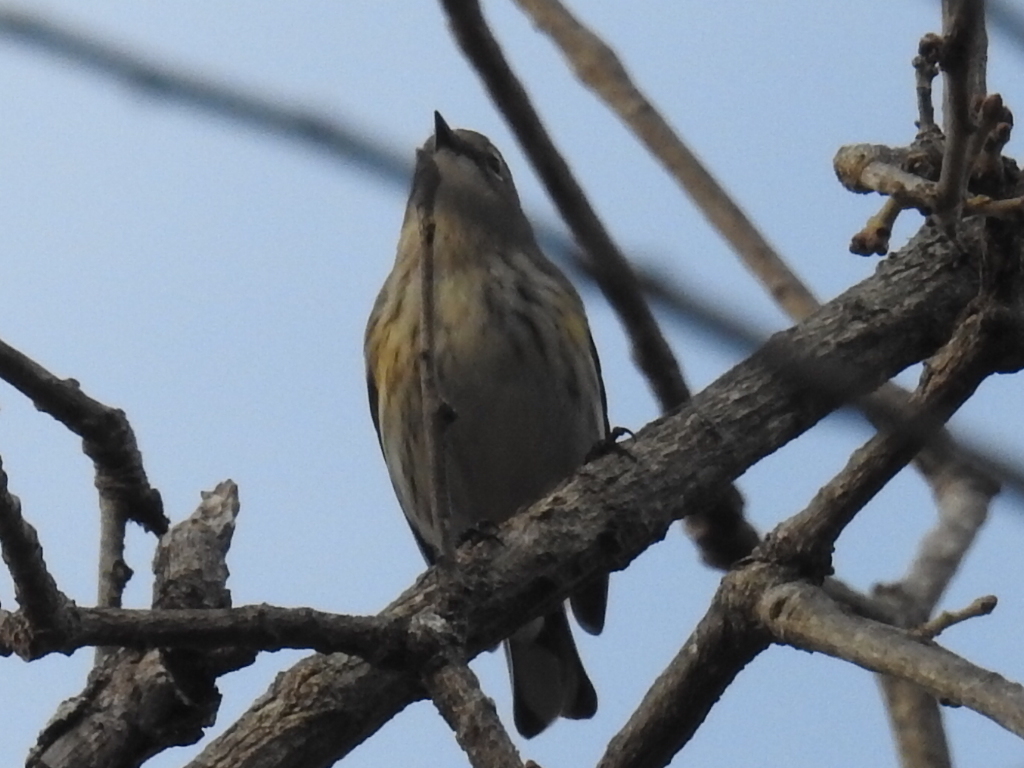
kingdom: Animalia
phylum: Chordata
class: Aves
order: Passeriformes
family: Parulidae
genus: Setophaga
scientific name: Setophaga coronata
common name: Myrtle warbler
